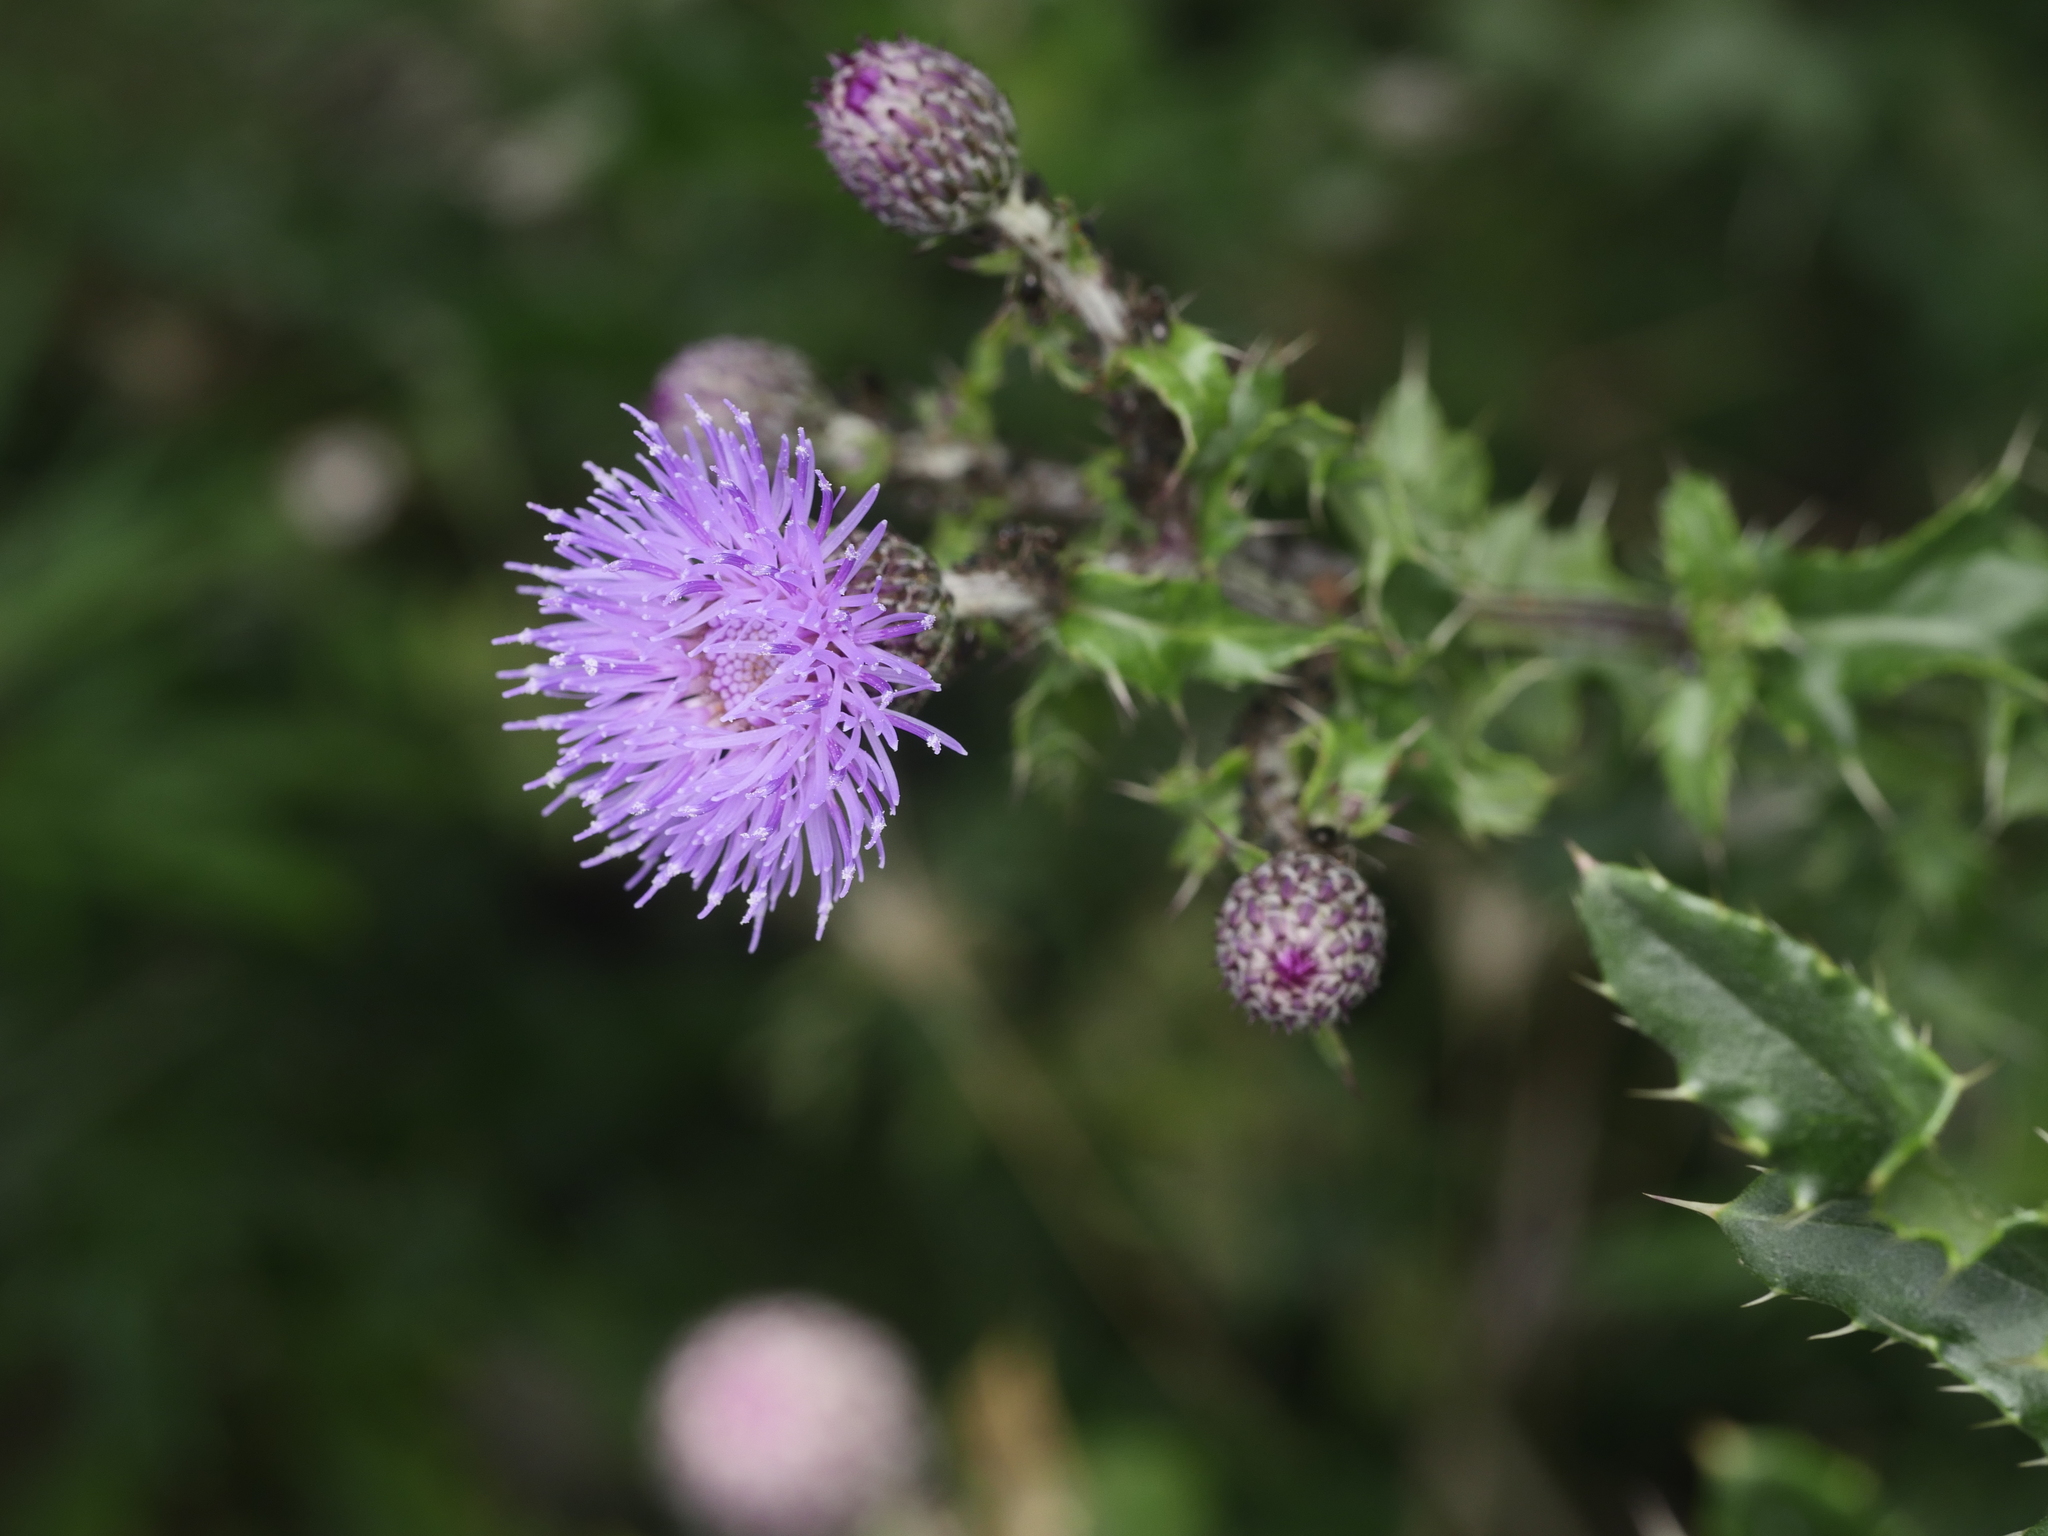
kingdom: Plantae
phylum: Tracheophyta
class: Magnoliopsida
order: Asterales
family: Asteraceae
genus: Cirsium
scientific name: Cirsium arvense
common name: Creeping thistle
